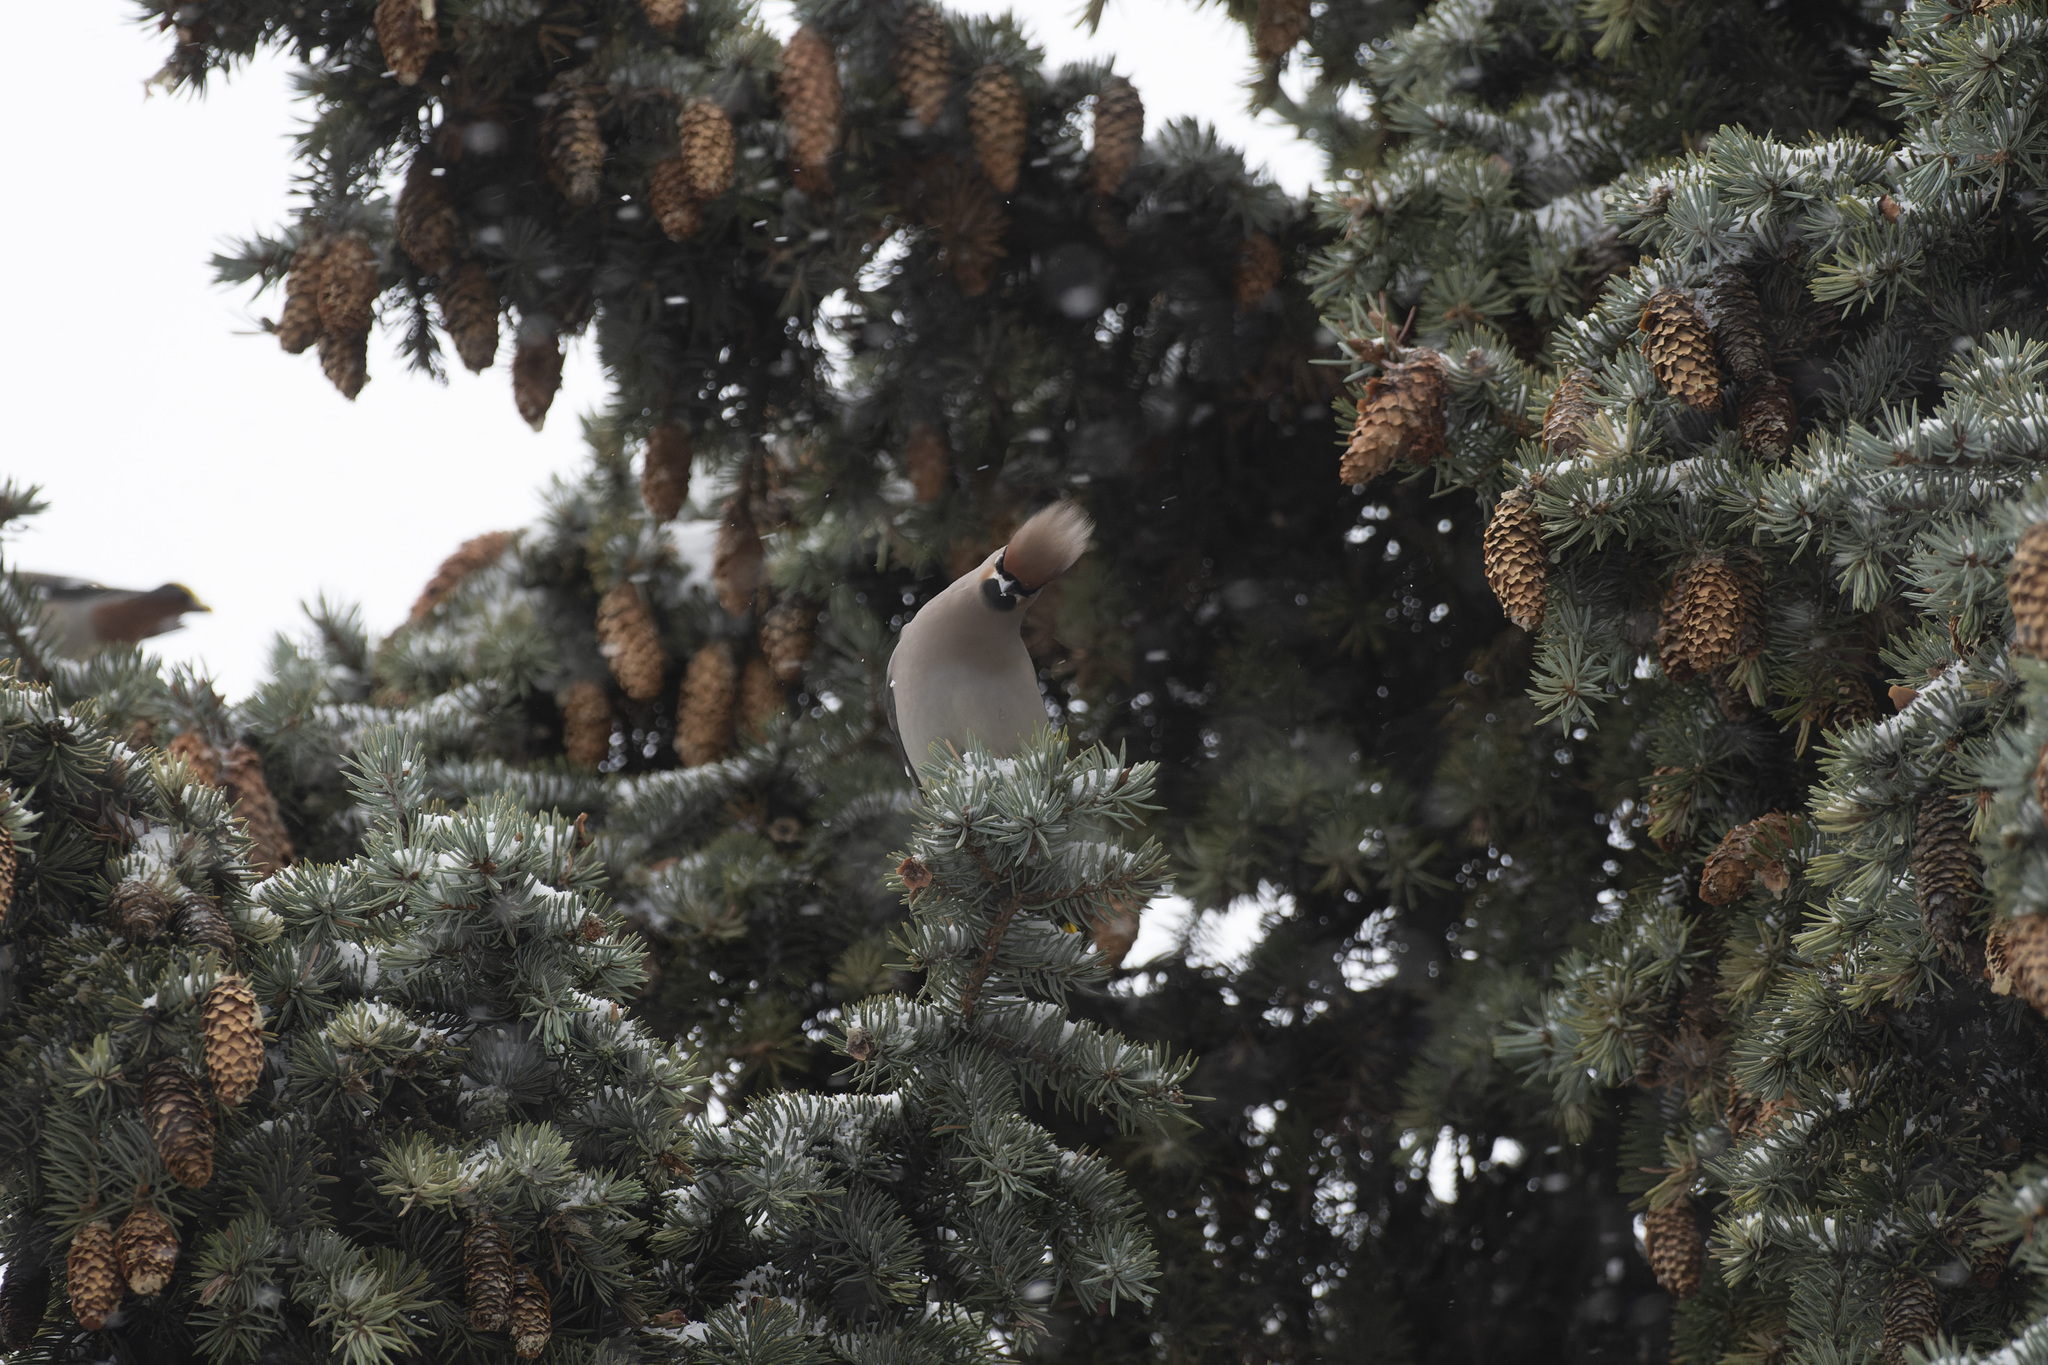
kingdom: Animalia
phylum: Chordata
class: Aves
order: Passeriformes
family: Bombycillidae
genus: Bombycilla
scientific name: Bombycilla garrulus
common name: Bohemian waxwing
